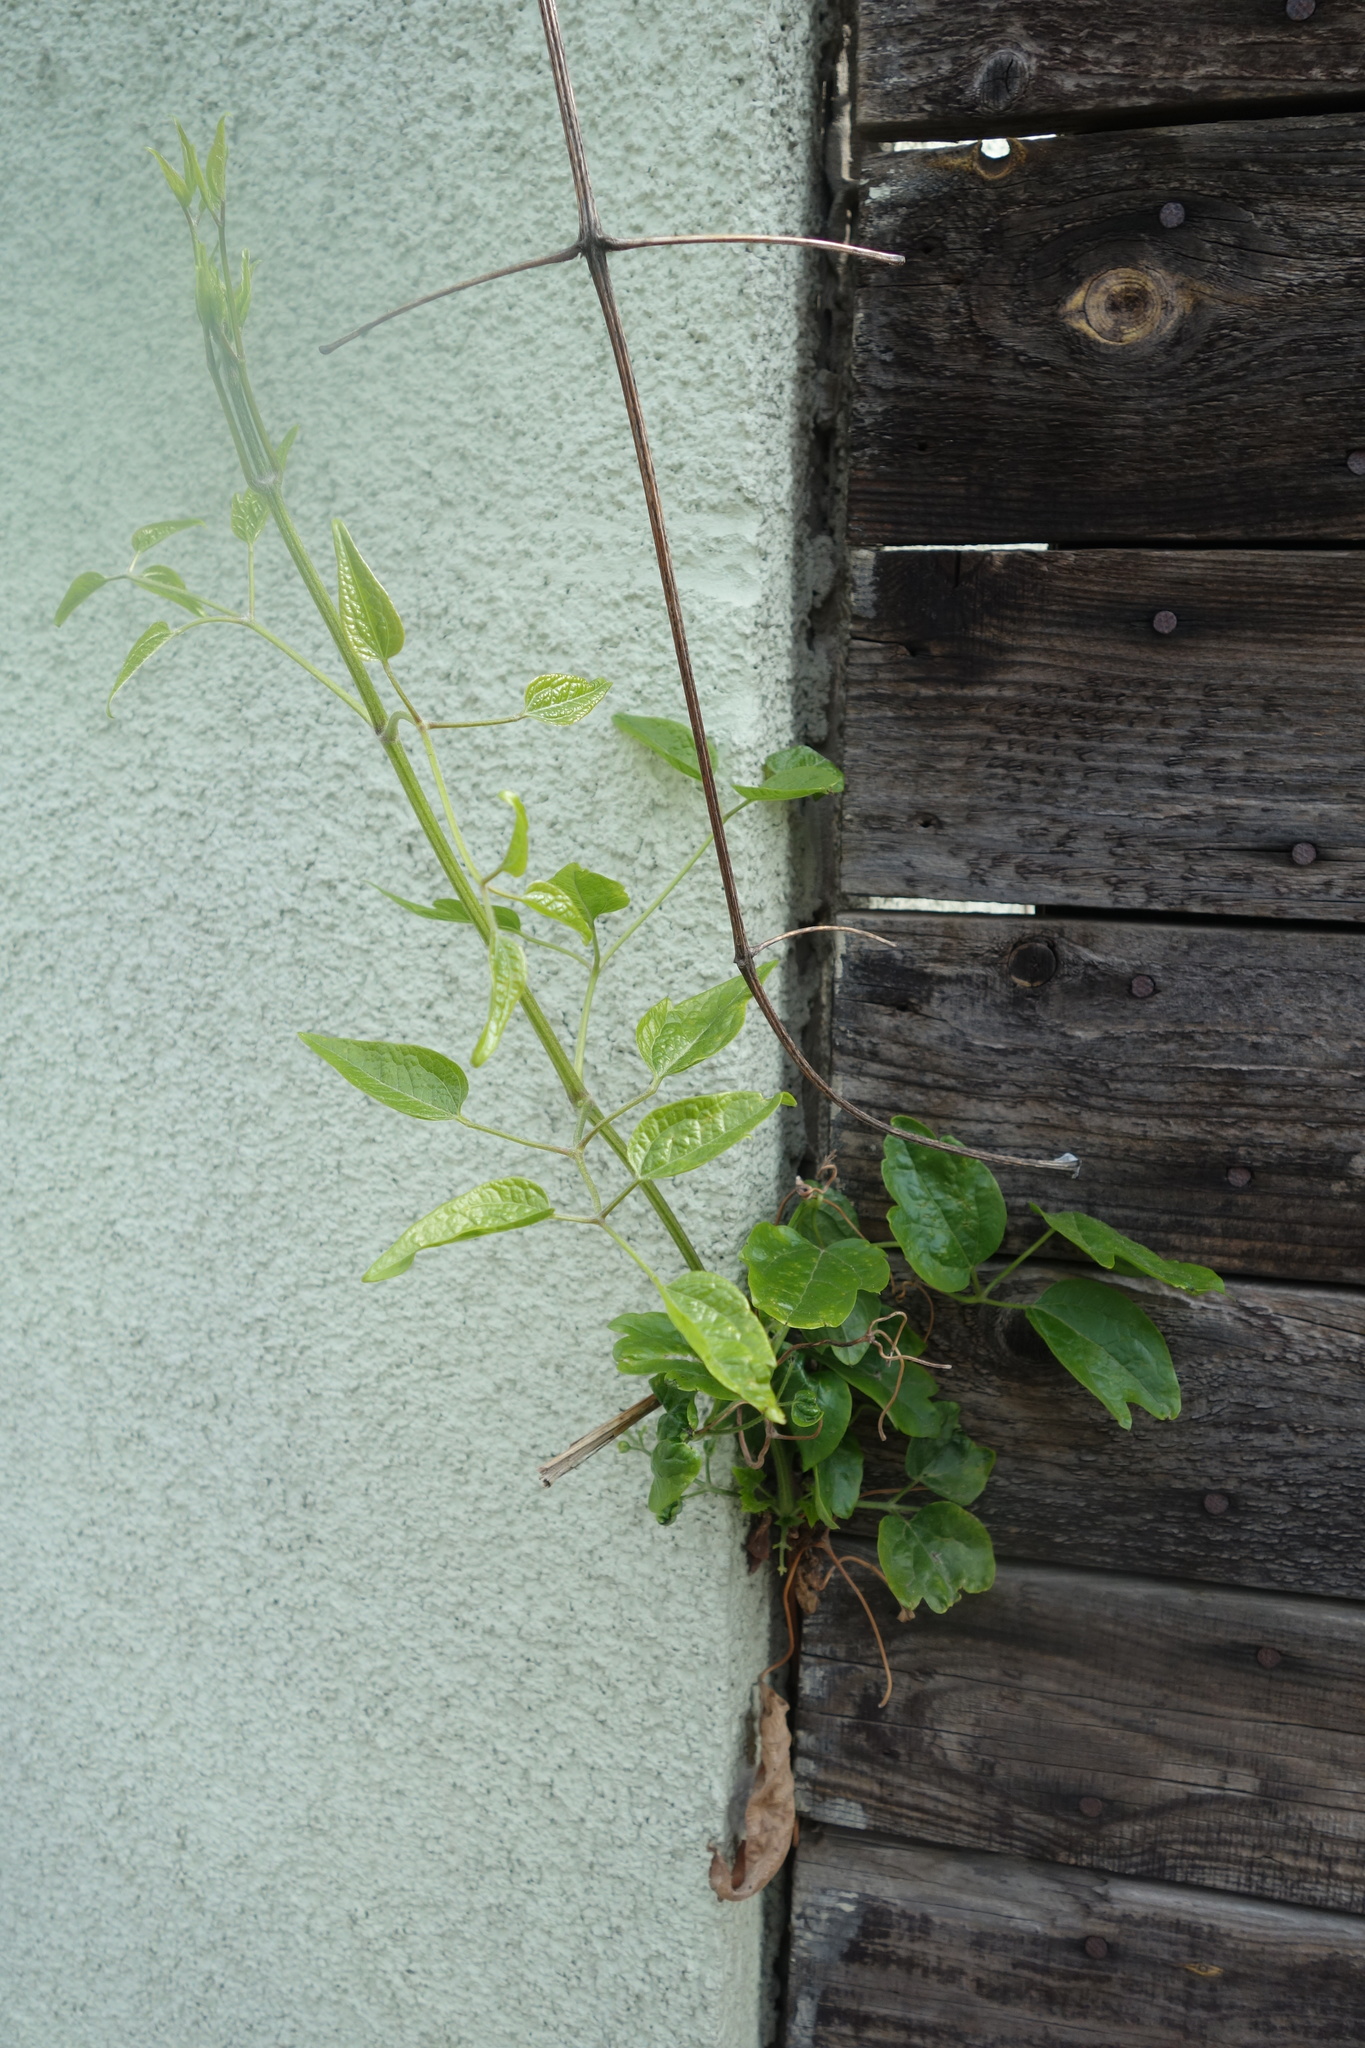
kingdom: Plantae
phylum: Tracheophyta
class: Magnoliopsida
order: Ranunculales
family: Ranunculaceae
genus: Clematis
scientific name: Clematis vitalba
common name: Evergreen clematis
